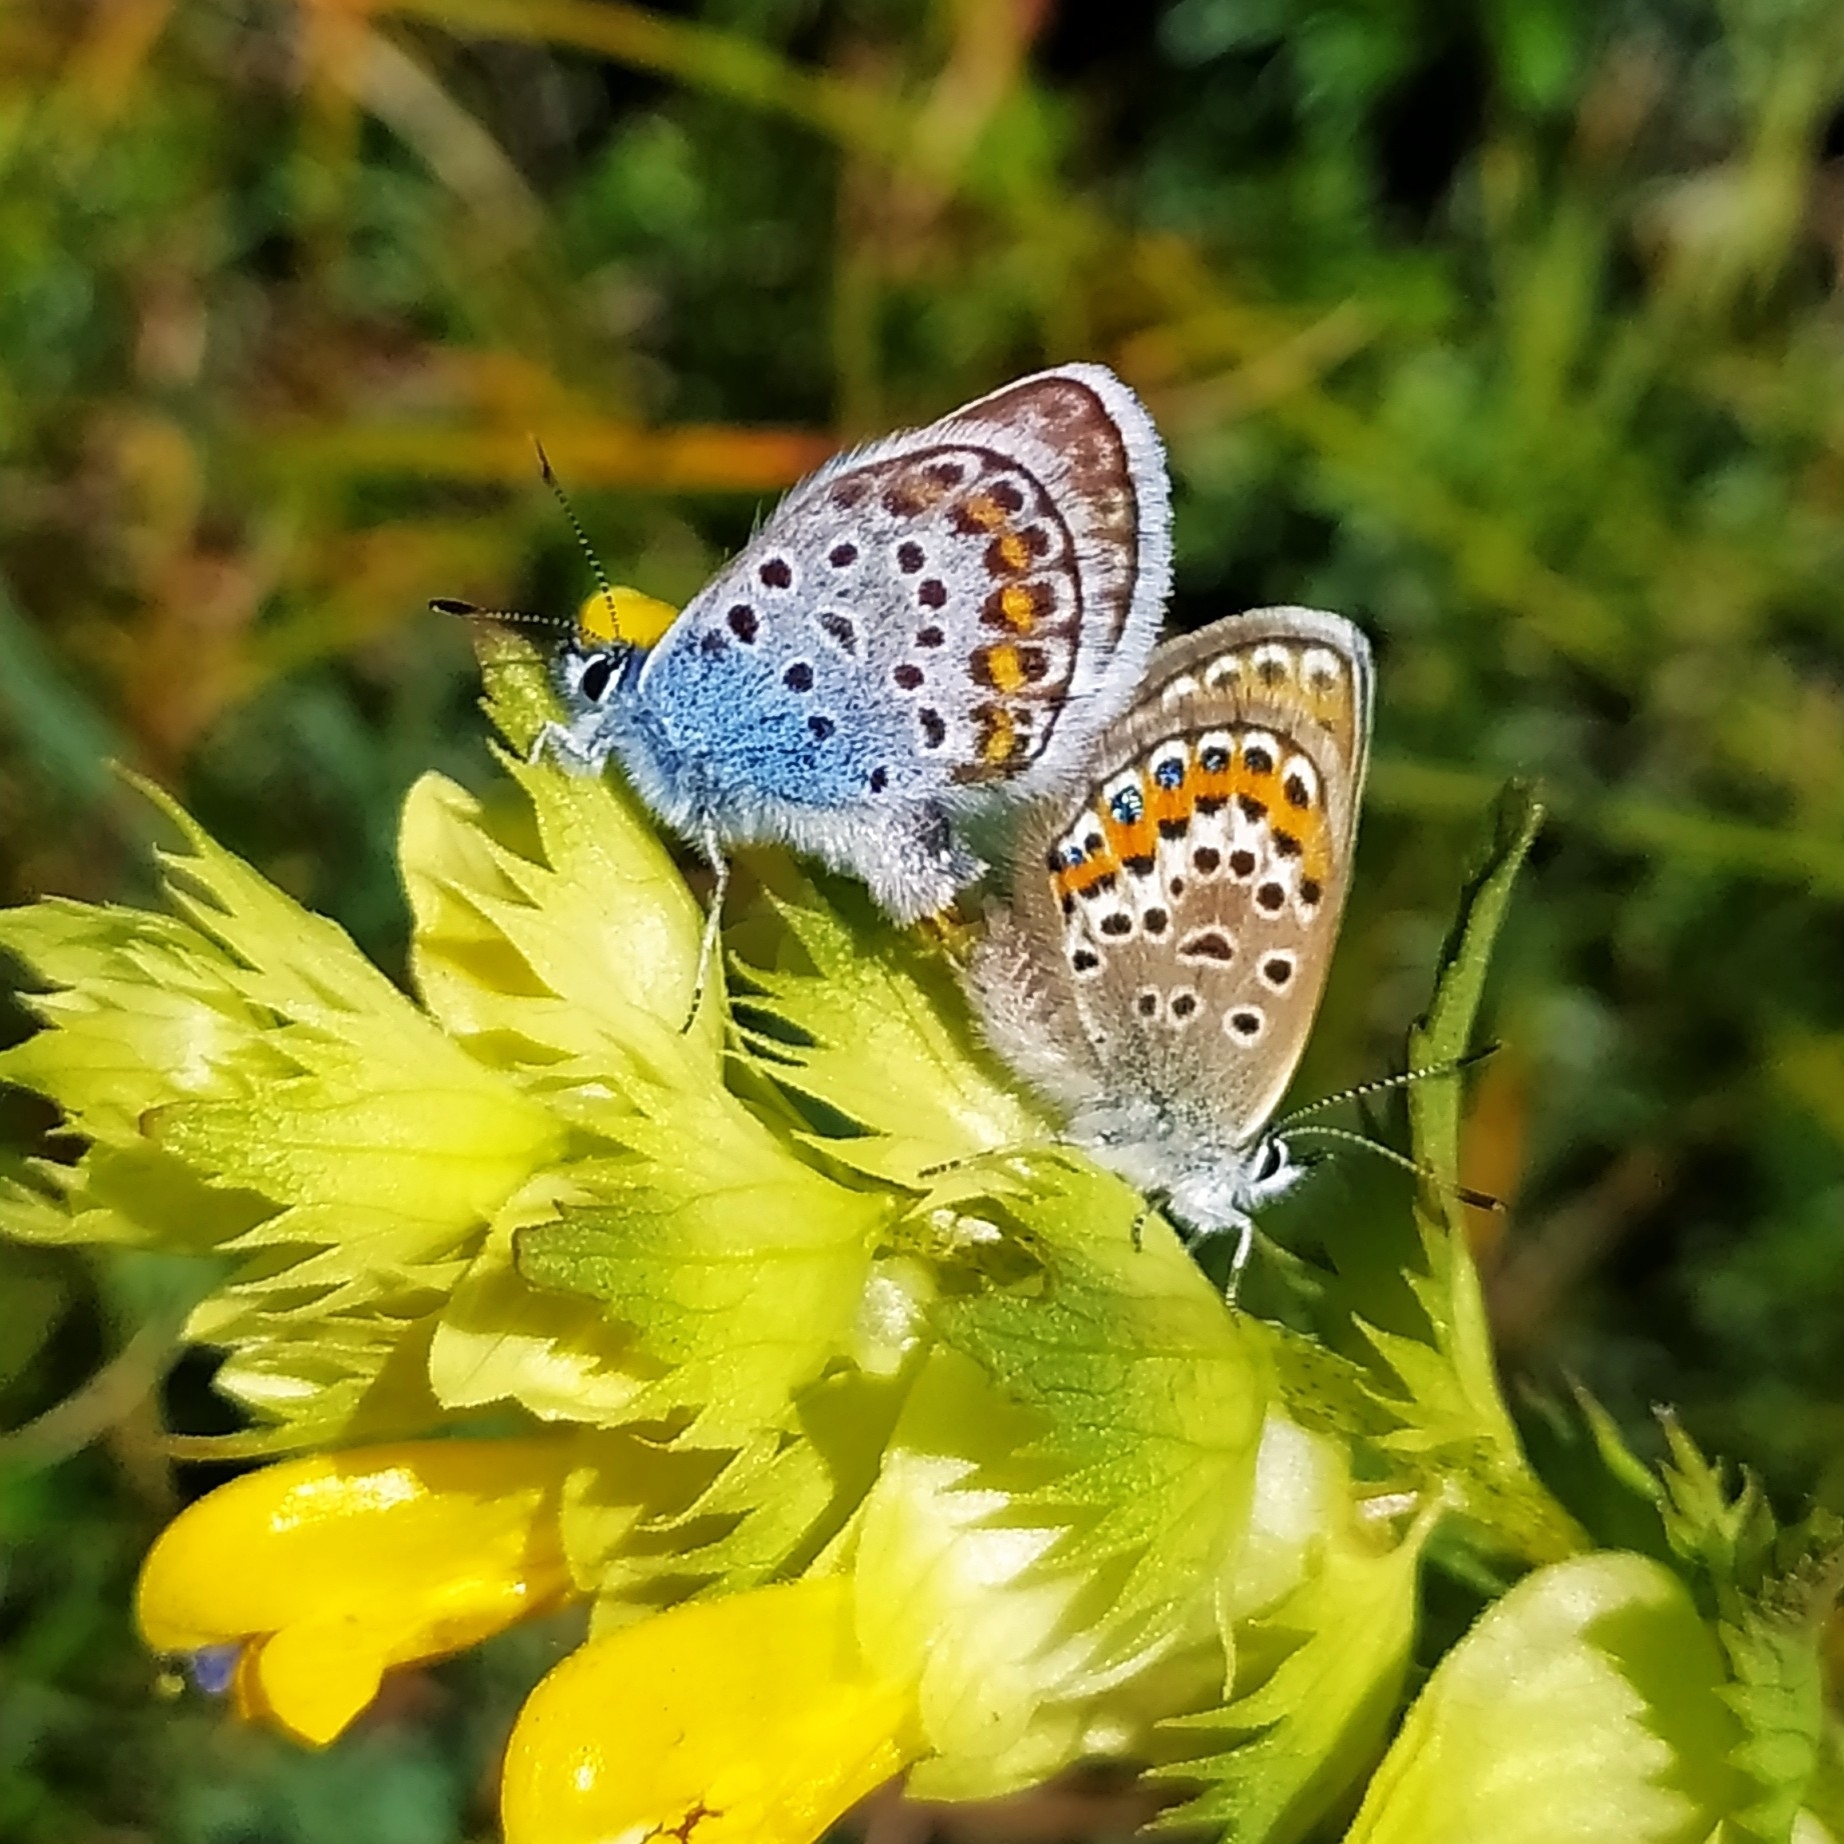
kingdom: Animalia
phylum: Arthropoda
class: Insecta
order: Lepidoptera
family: Lycaenidae
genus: Plebejus
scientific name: Plebejus argus
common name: Silver-studded blue
